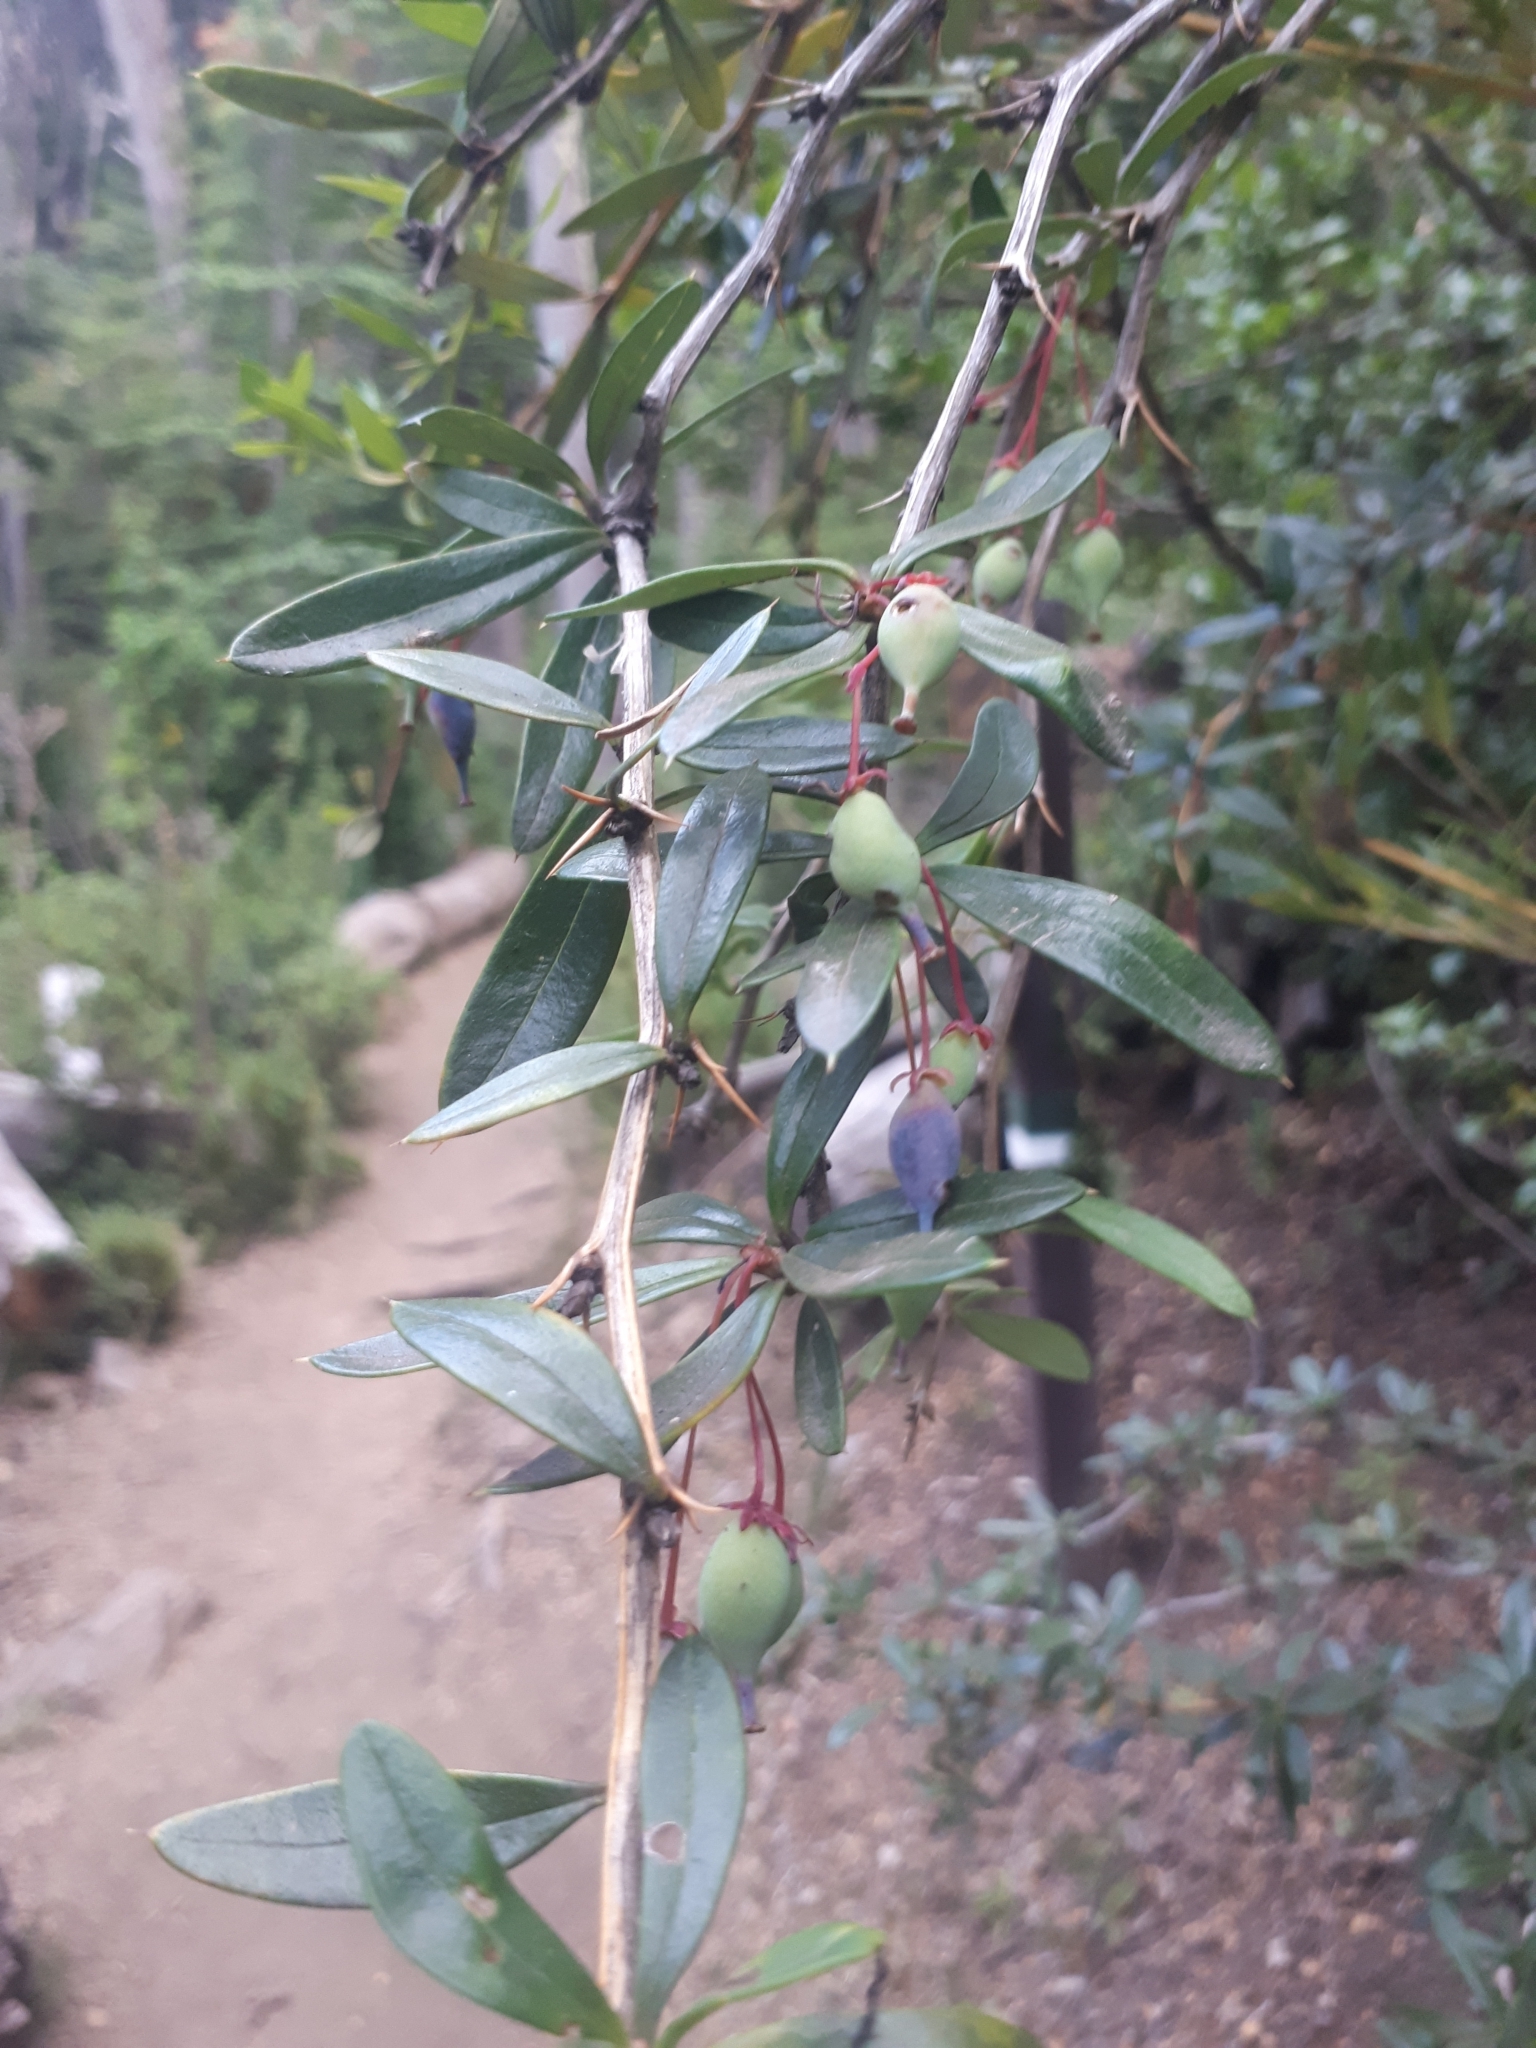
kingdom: Plantae
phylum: Tracheophyta
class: Magnoliopsida
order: Ranunculales
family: Berberidaceae
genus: Berberis
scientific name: Berberis trigona
